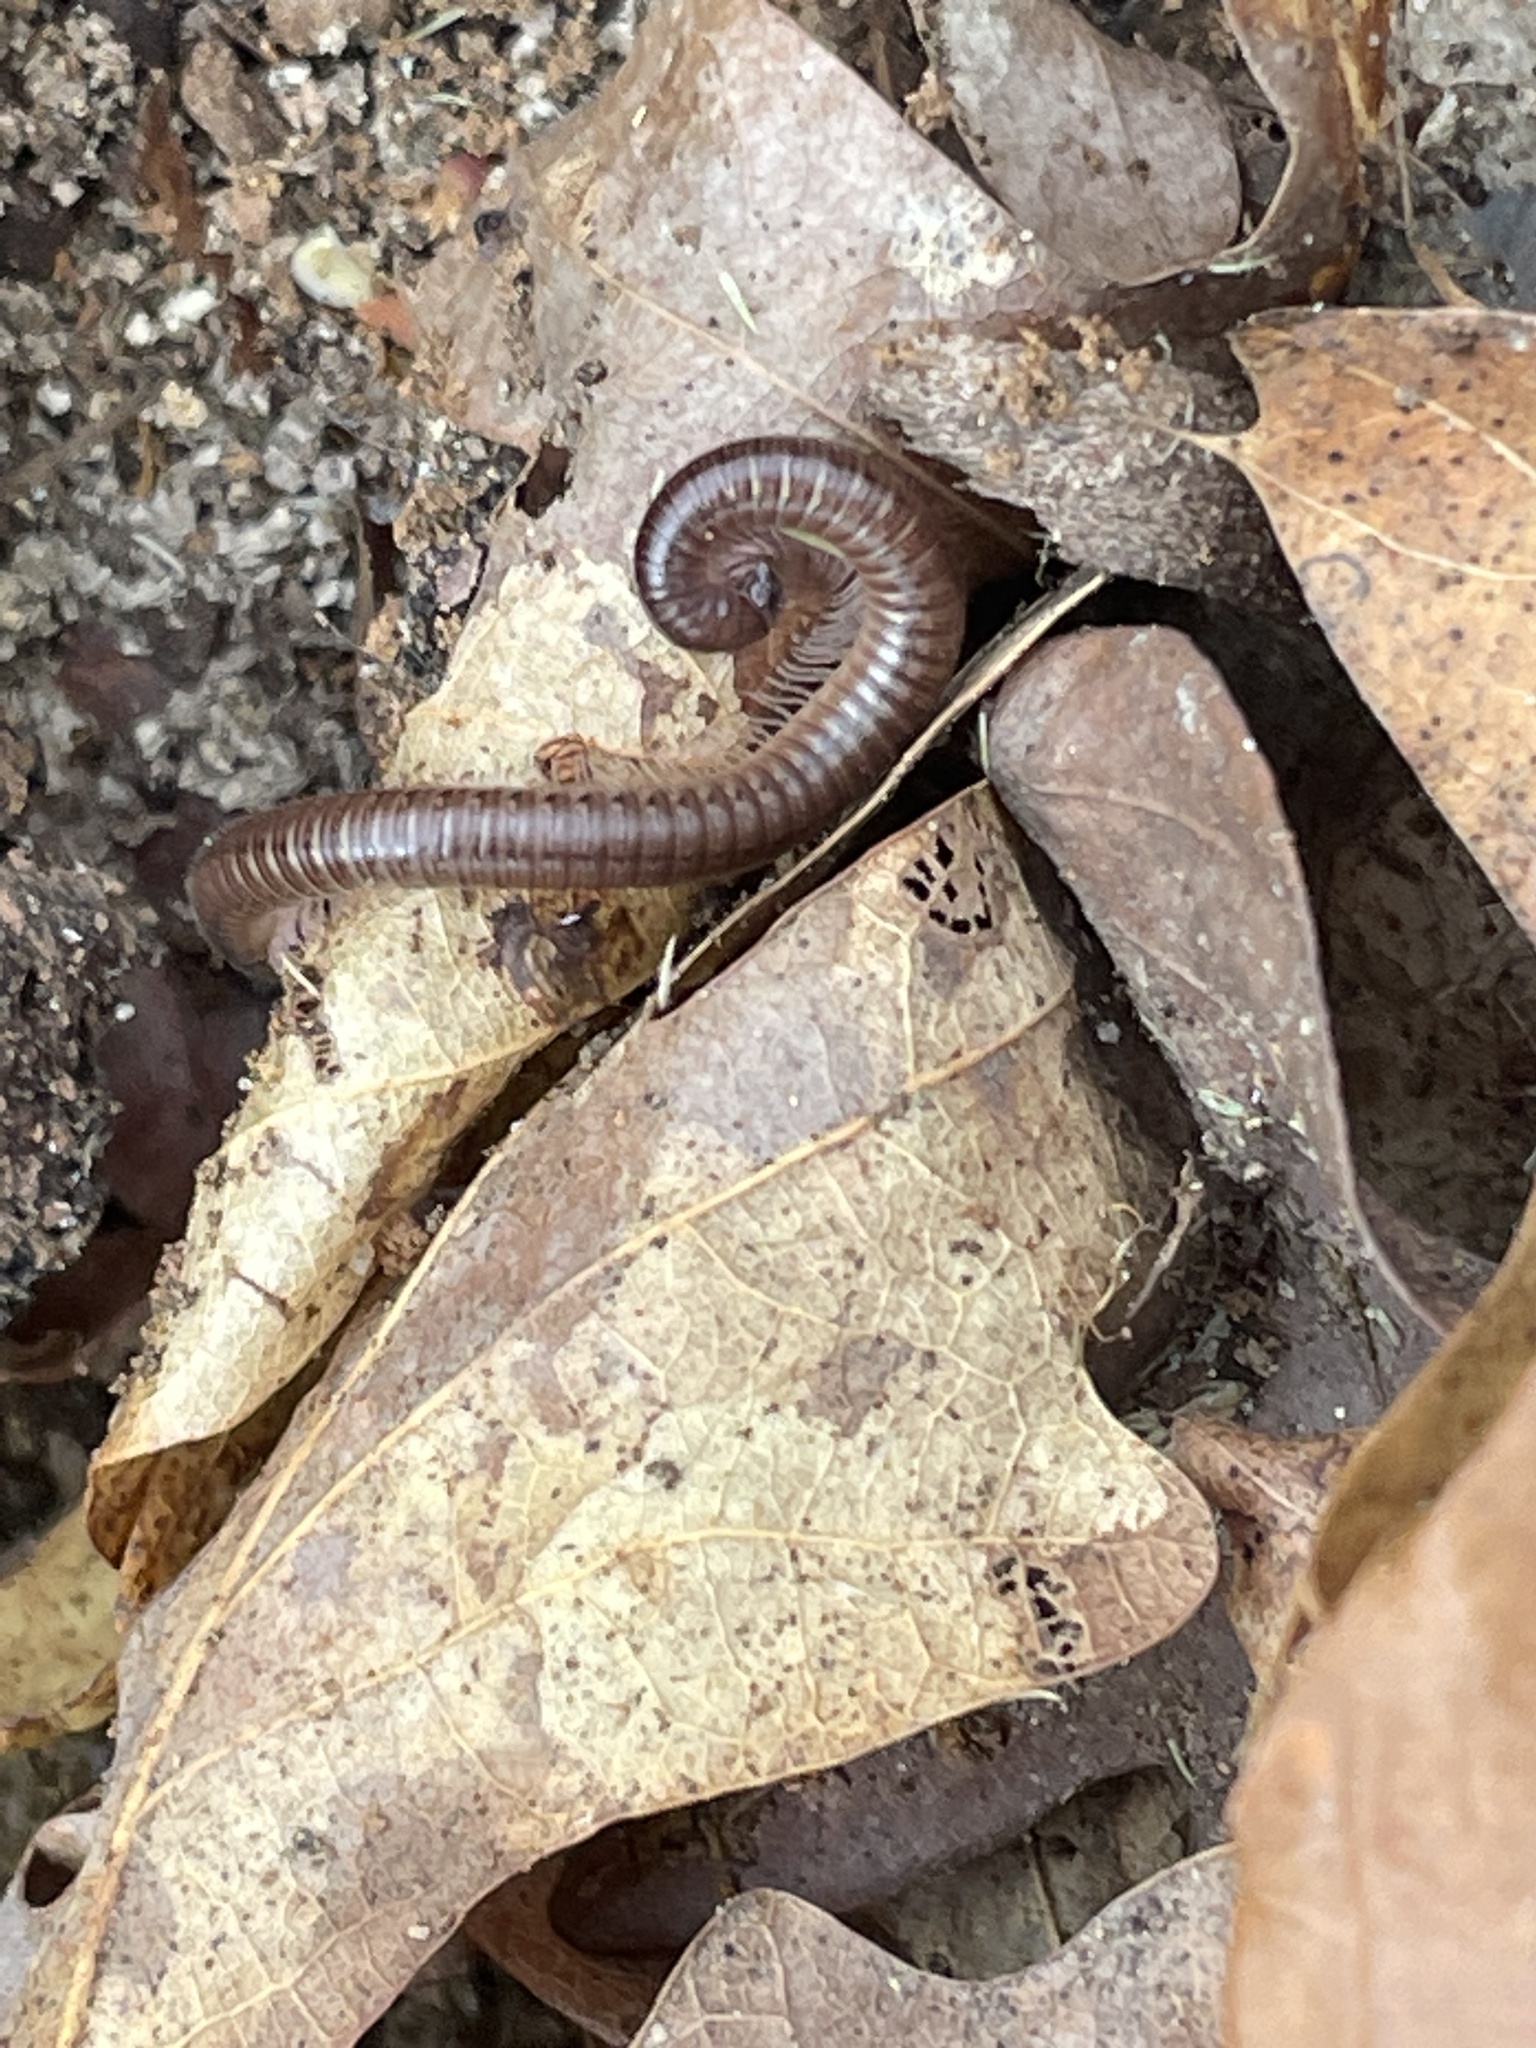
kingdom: Animalia
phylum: Arthropoda
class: Diplopoda
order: Julida
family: Parajulidae
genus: Ptyoiulus
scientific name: Ptyoiulus impressus
